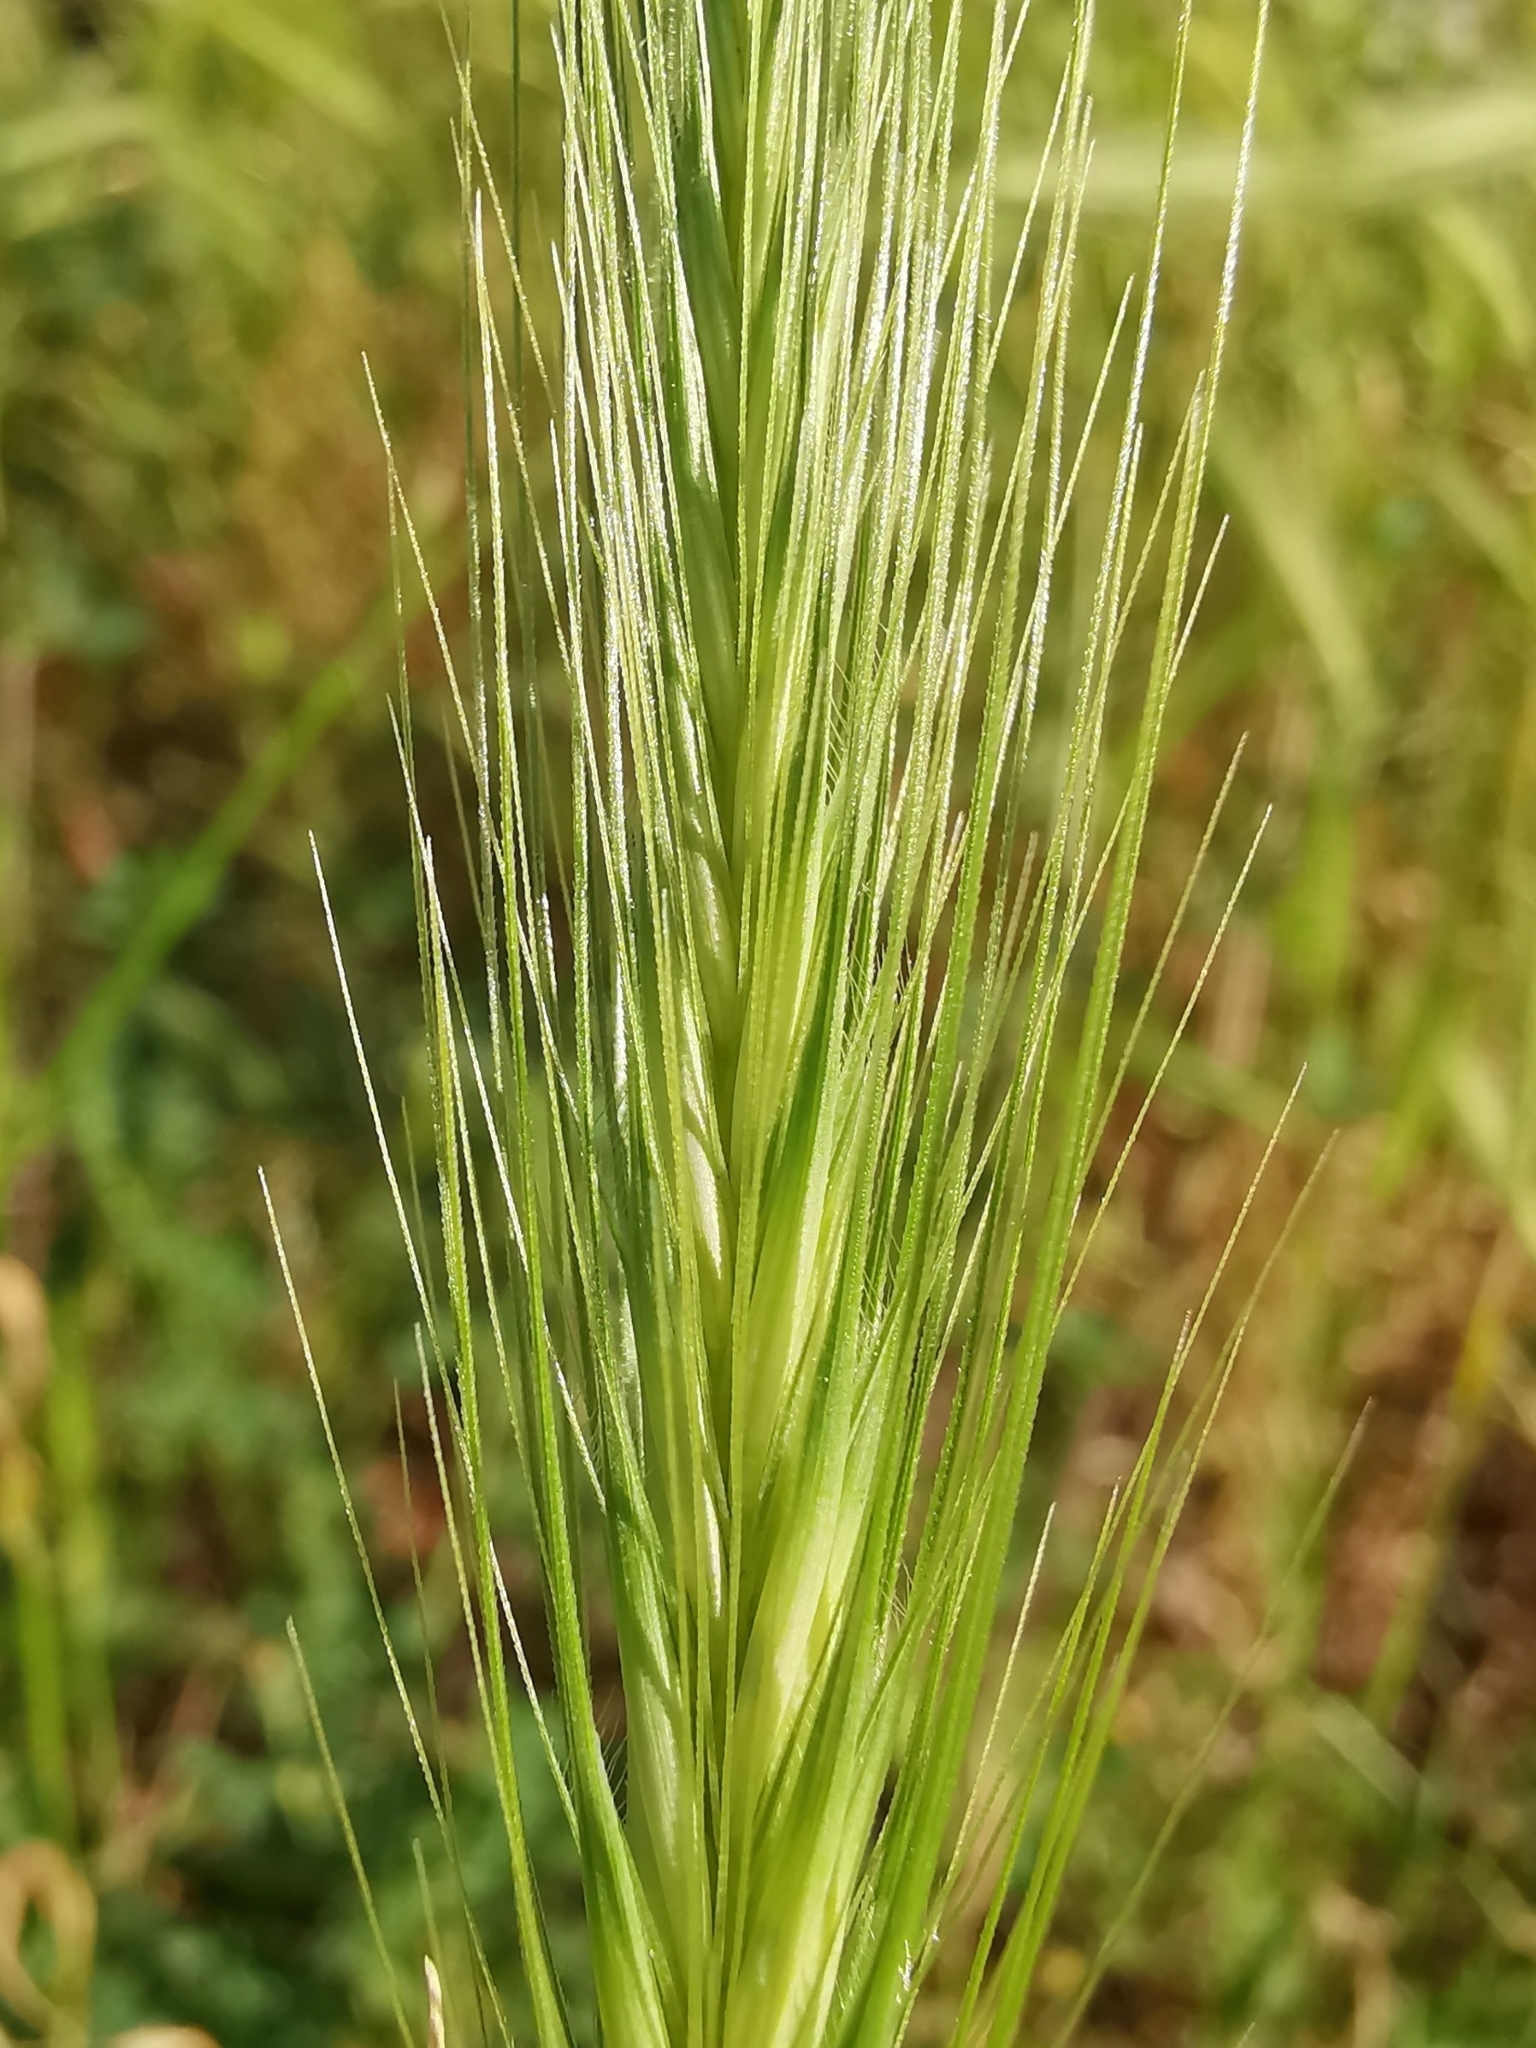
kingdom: Plantae
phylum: Tracheophyta
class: Liliopsida
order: Poales
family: Poaceae
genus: Hordeum
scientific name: Hordeum murinum
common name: Wall barley
